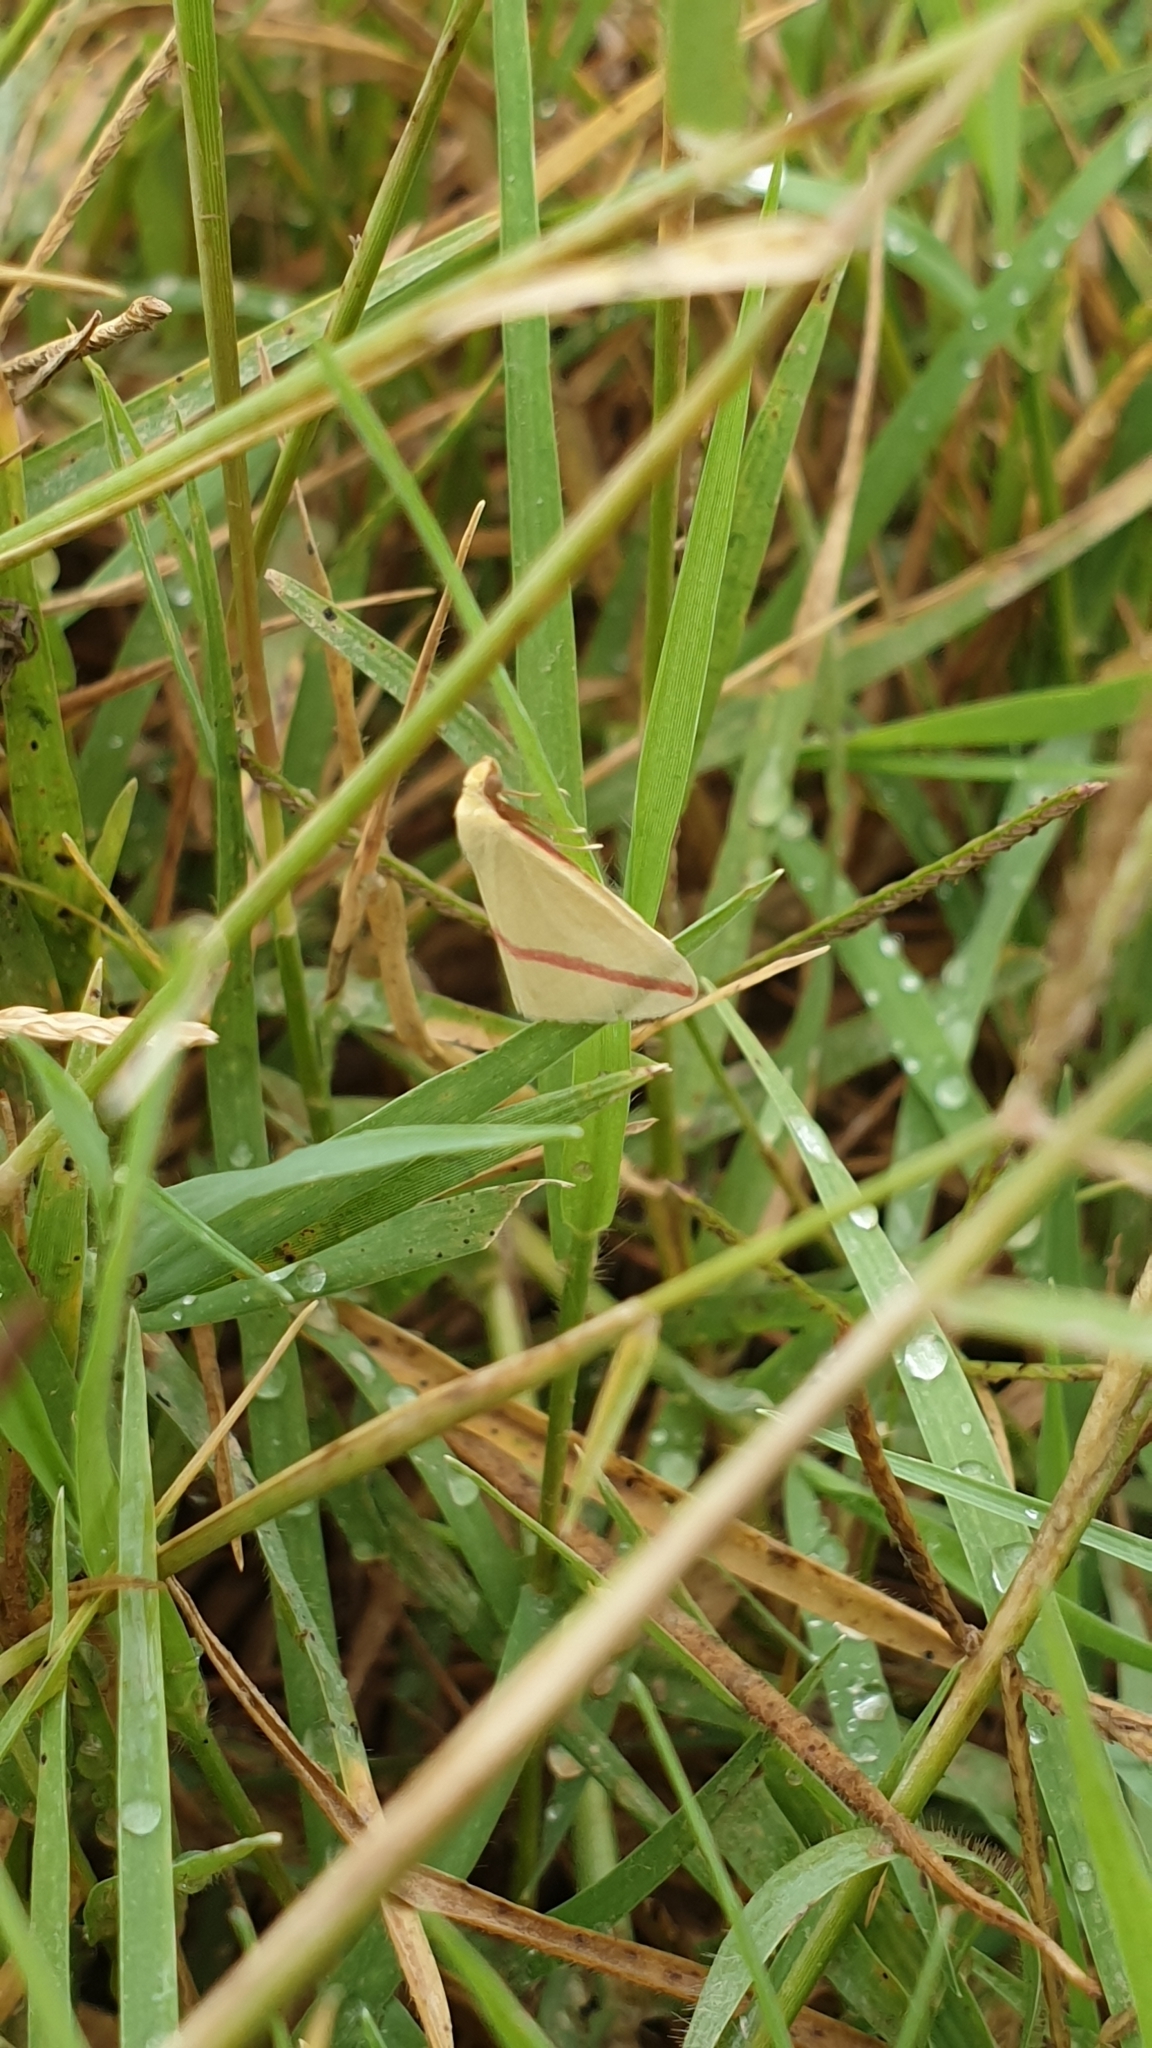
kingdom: Animalia
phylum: Arthropoda
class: Insecta
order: Lepidoptera
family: Geometridae
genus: Rhodometra
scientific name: Rhodometra sacraria
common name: Vestal
